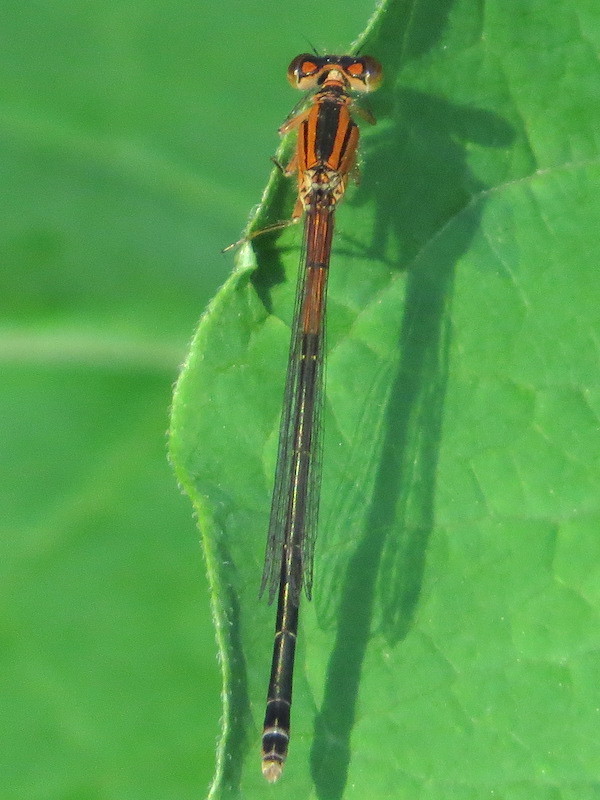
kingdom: Animalia
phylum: Arthropoda
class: Insecta
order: Odonata
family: Coenagrionidae
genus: Ischnura
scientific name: Ischnura verticalis
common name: Eastern forktail
